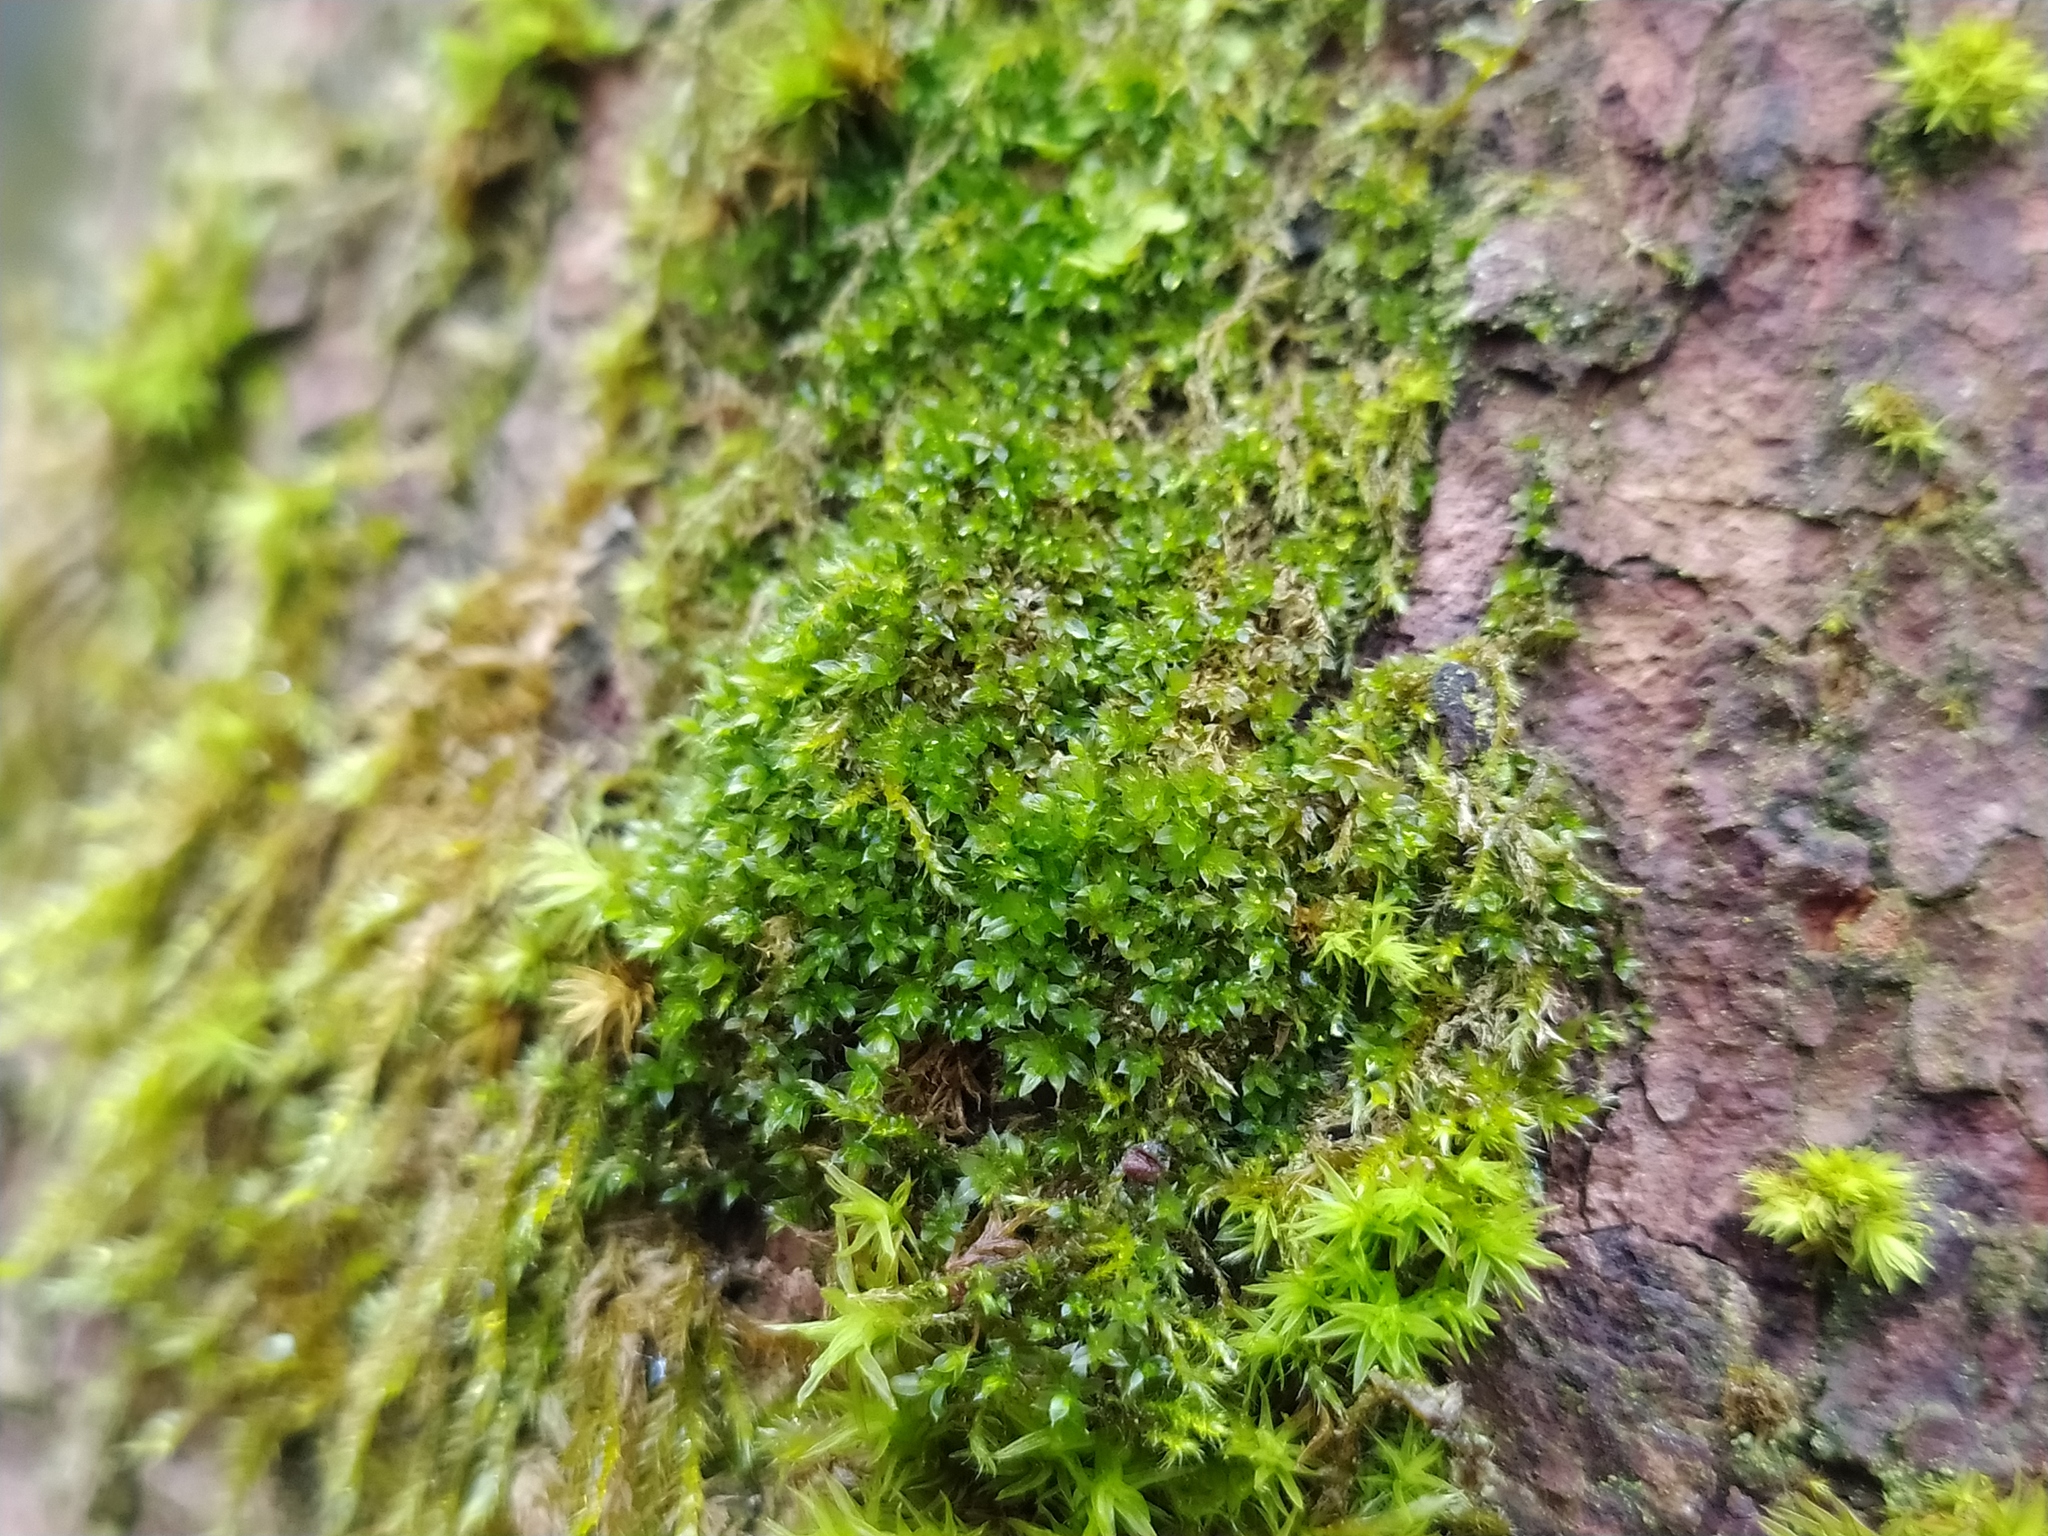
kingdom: Plantae
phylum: Bryophyta
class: Bryopsida
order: Bryales
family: Bryaceae
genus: Rosulabryum
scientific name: Rosulabryum moravicum
